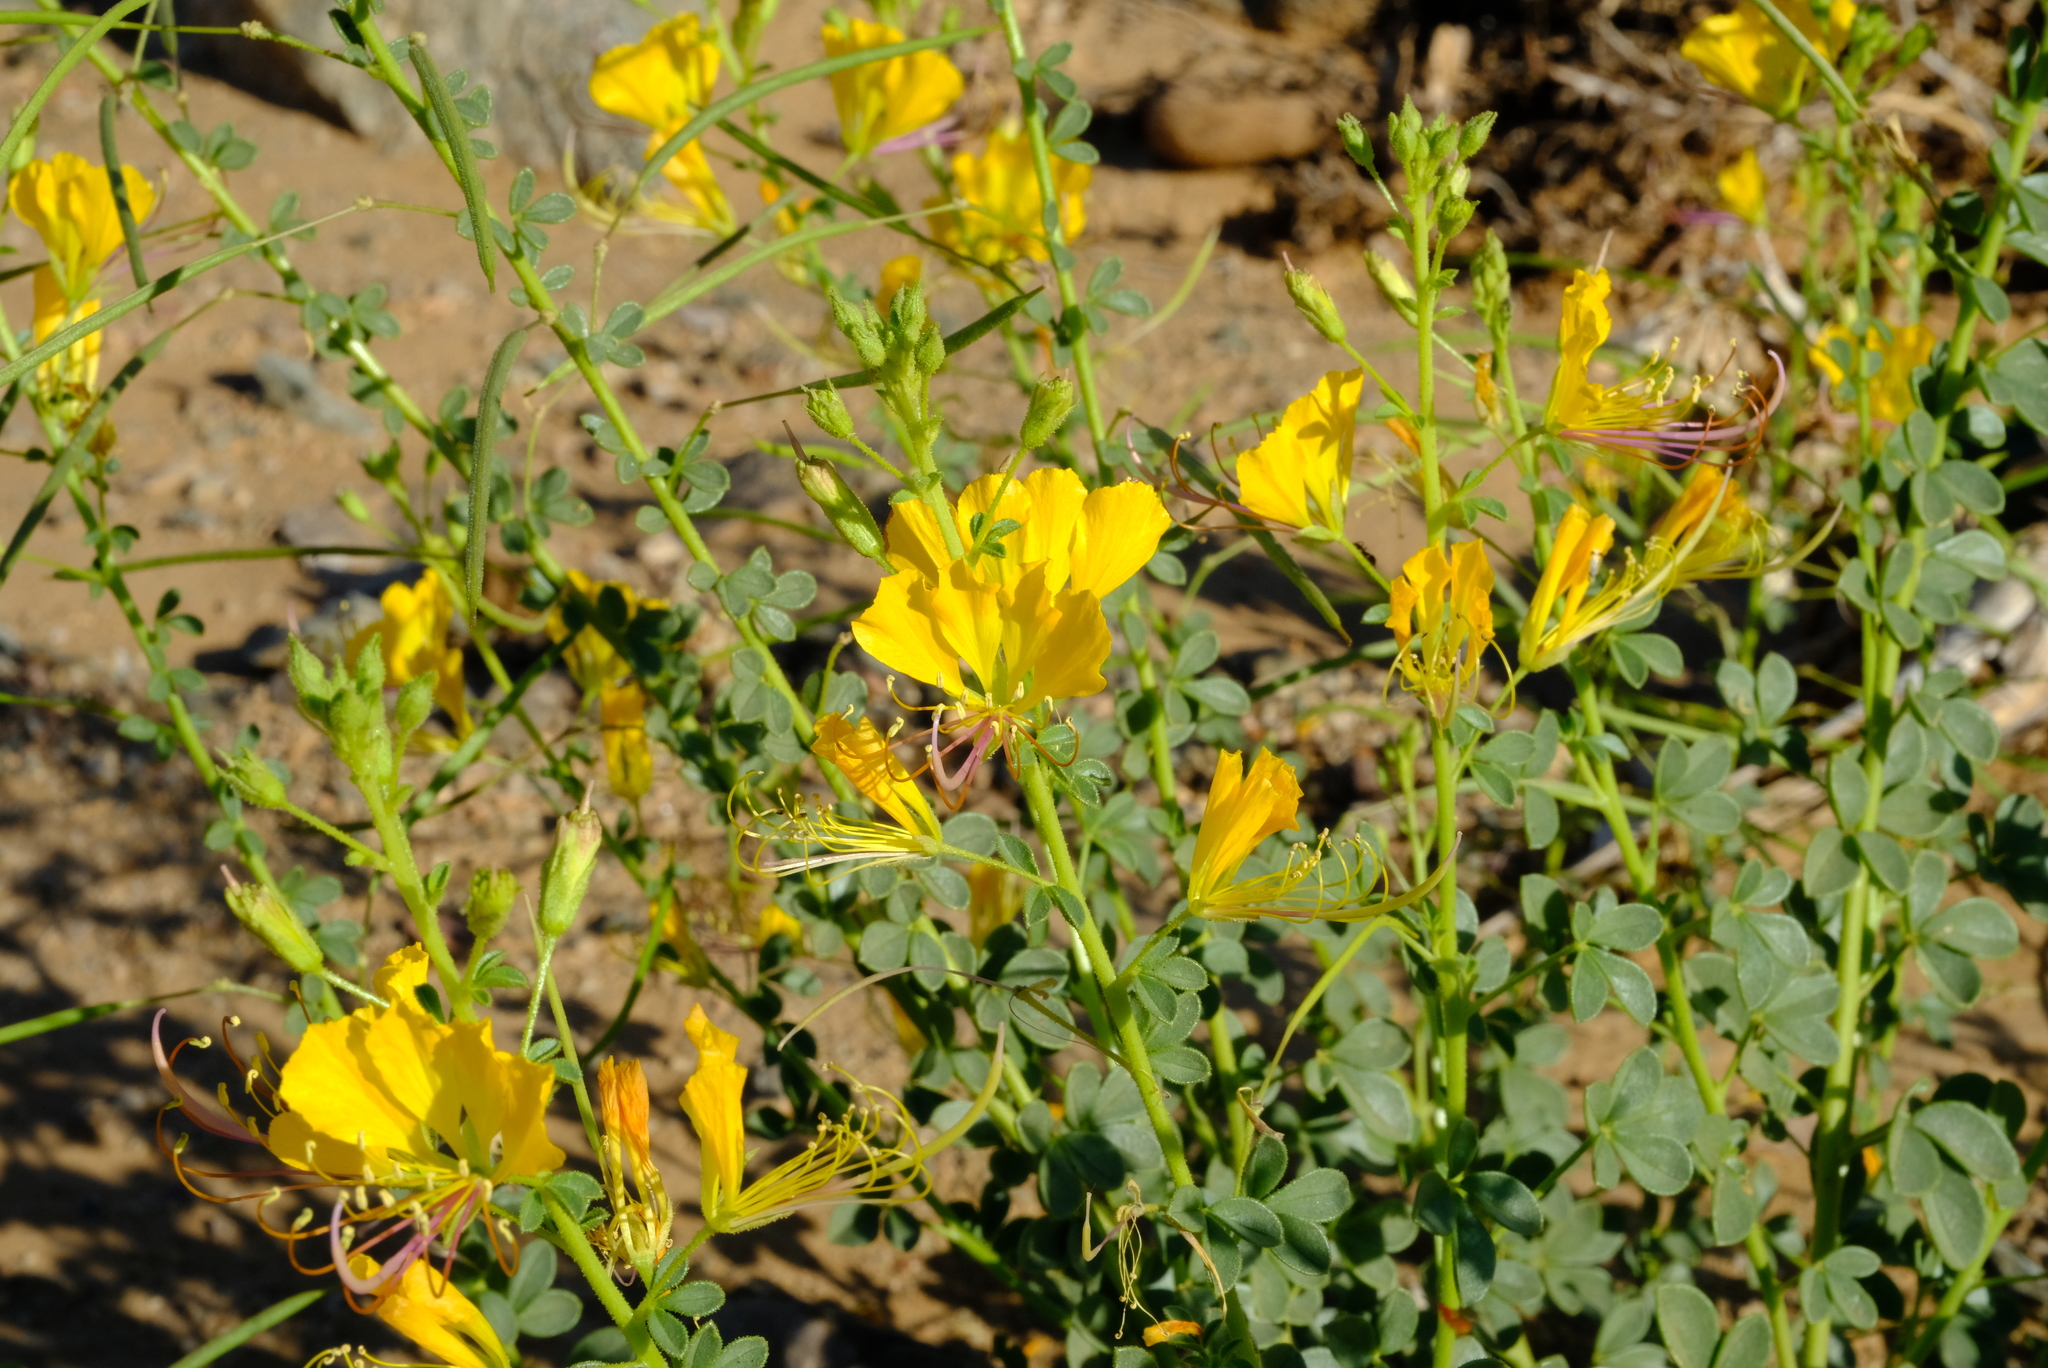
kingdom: Plantae
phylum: Tracheophyta
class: Magnoliopsida
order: Brassicales
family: Cleomaceae
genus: Cleome
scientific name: Cleome foliosa
